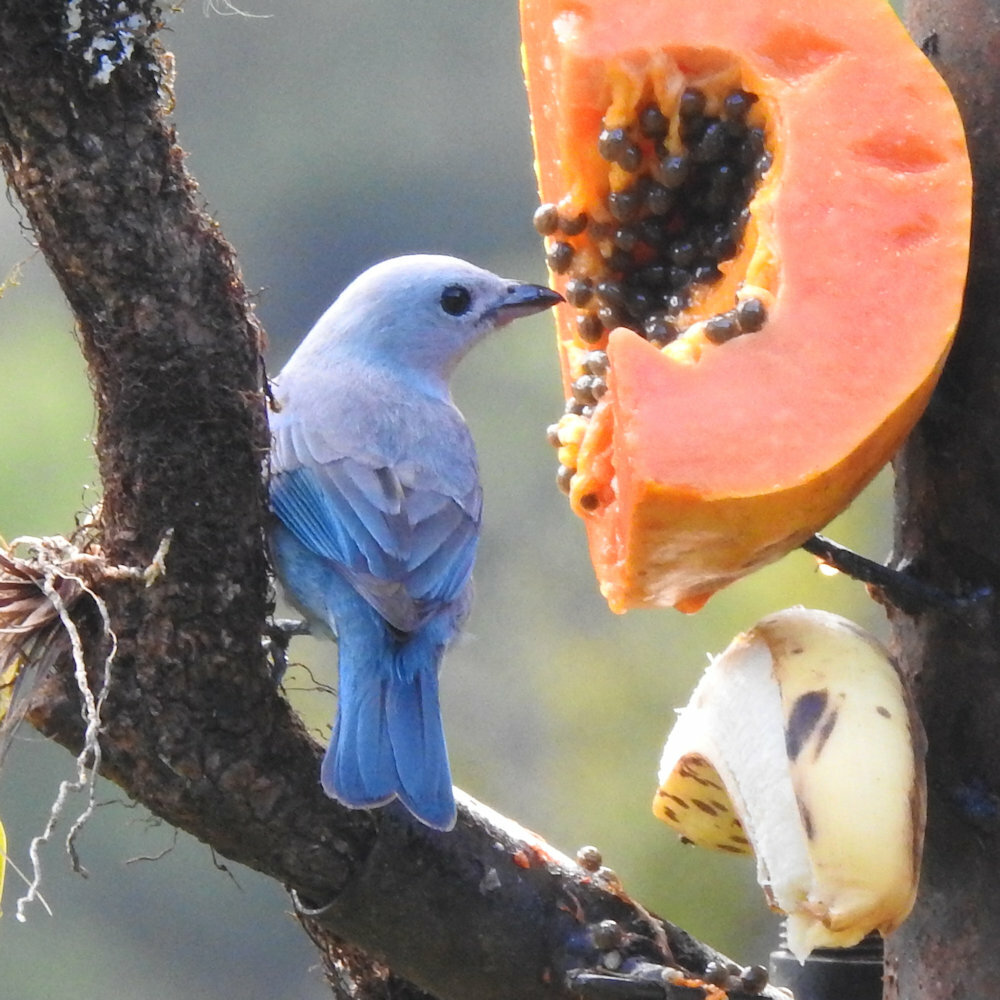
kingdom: Animalia
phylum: Chordata
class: Aves
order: Passeriformes
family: Thraupidae
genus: Thraupis
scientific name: Thraupis episcopus
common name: Blue-grey tanager
